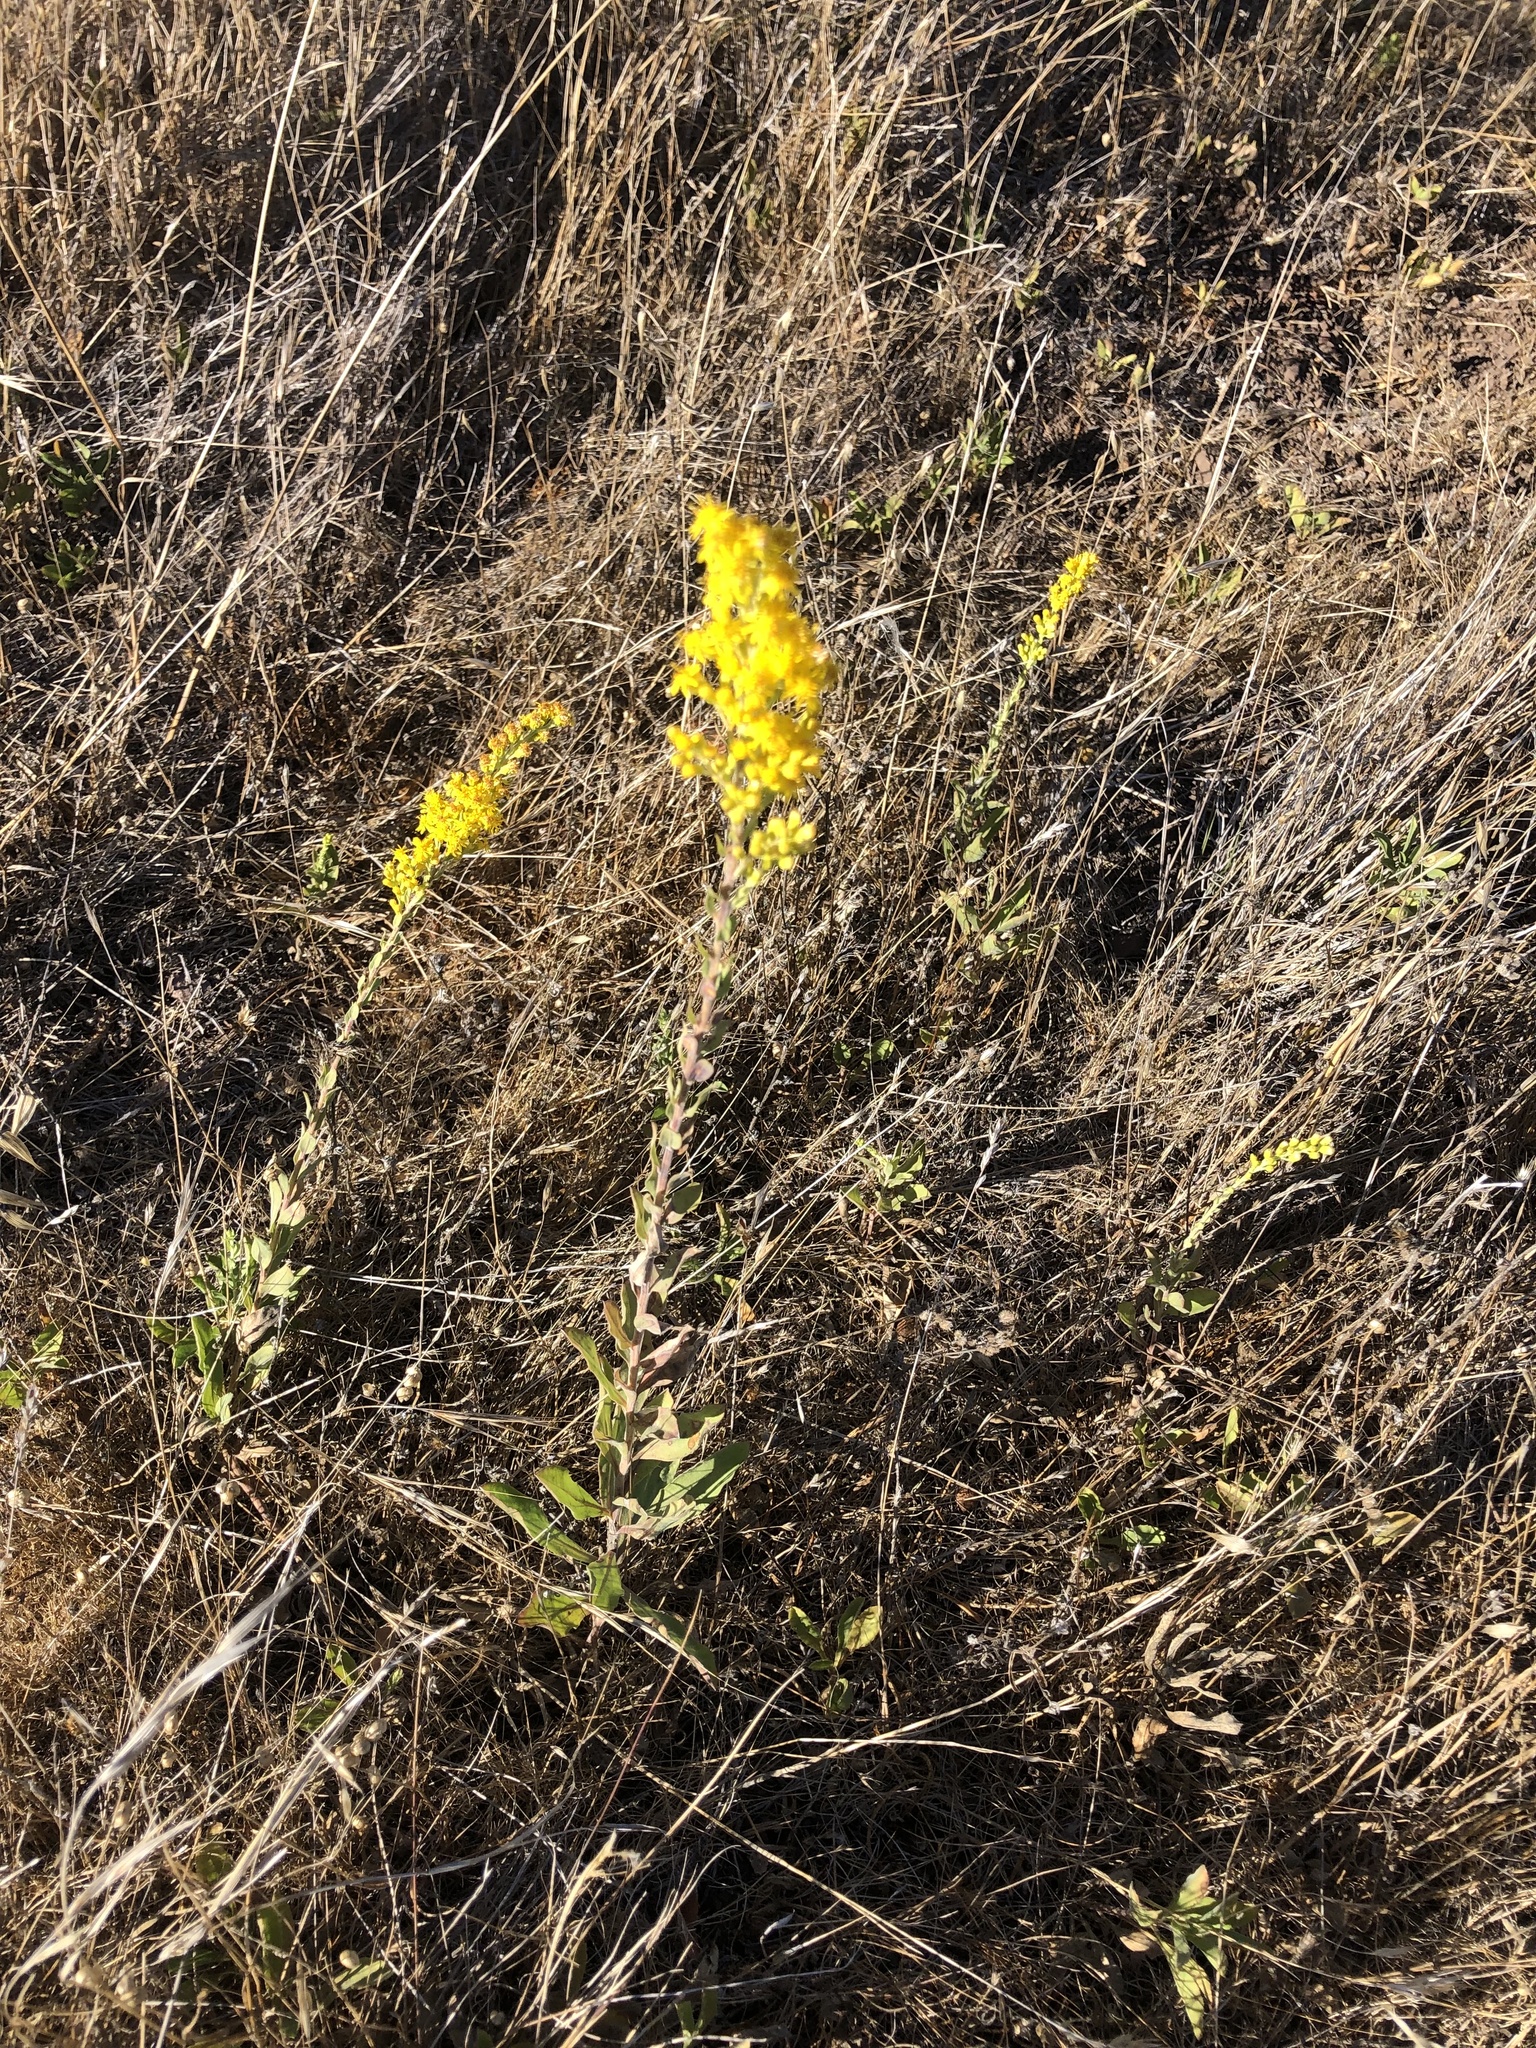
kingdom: Plantae
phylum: Tracheophyta
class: Magnoliopsida
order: Asterales
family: Asteraceae
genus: Solidago
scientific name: Solidago velutina
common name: Three-nerve goldenrod
